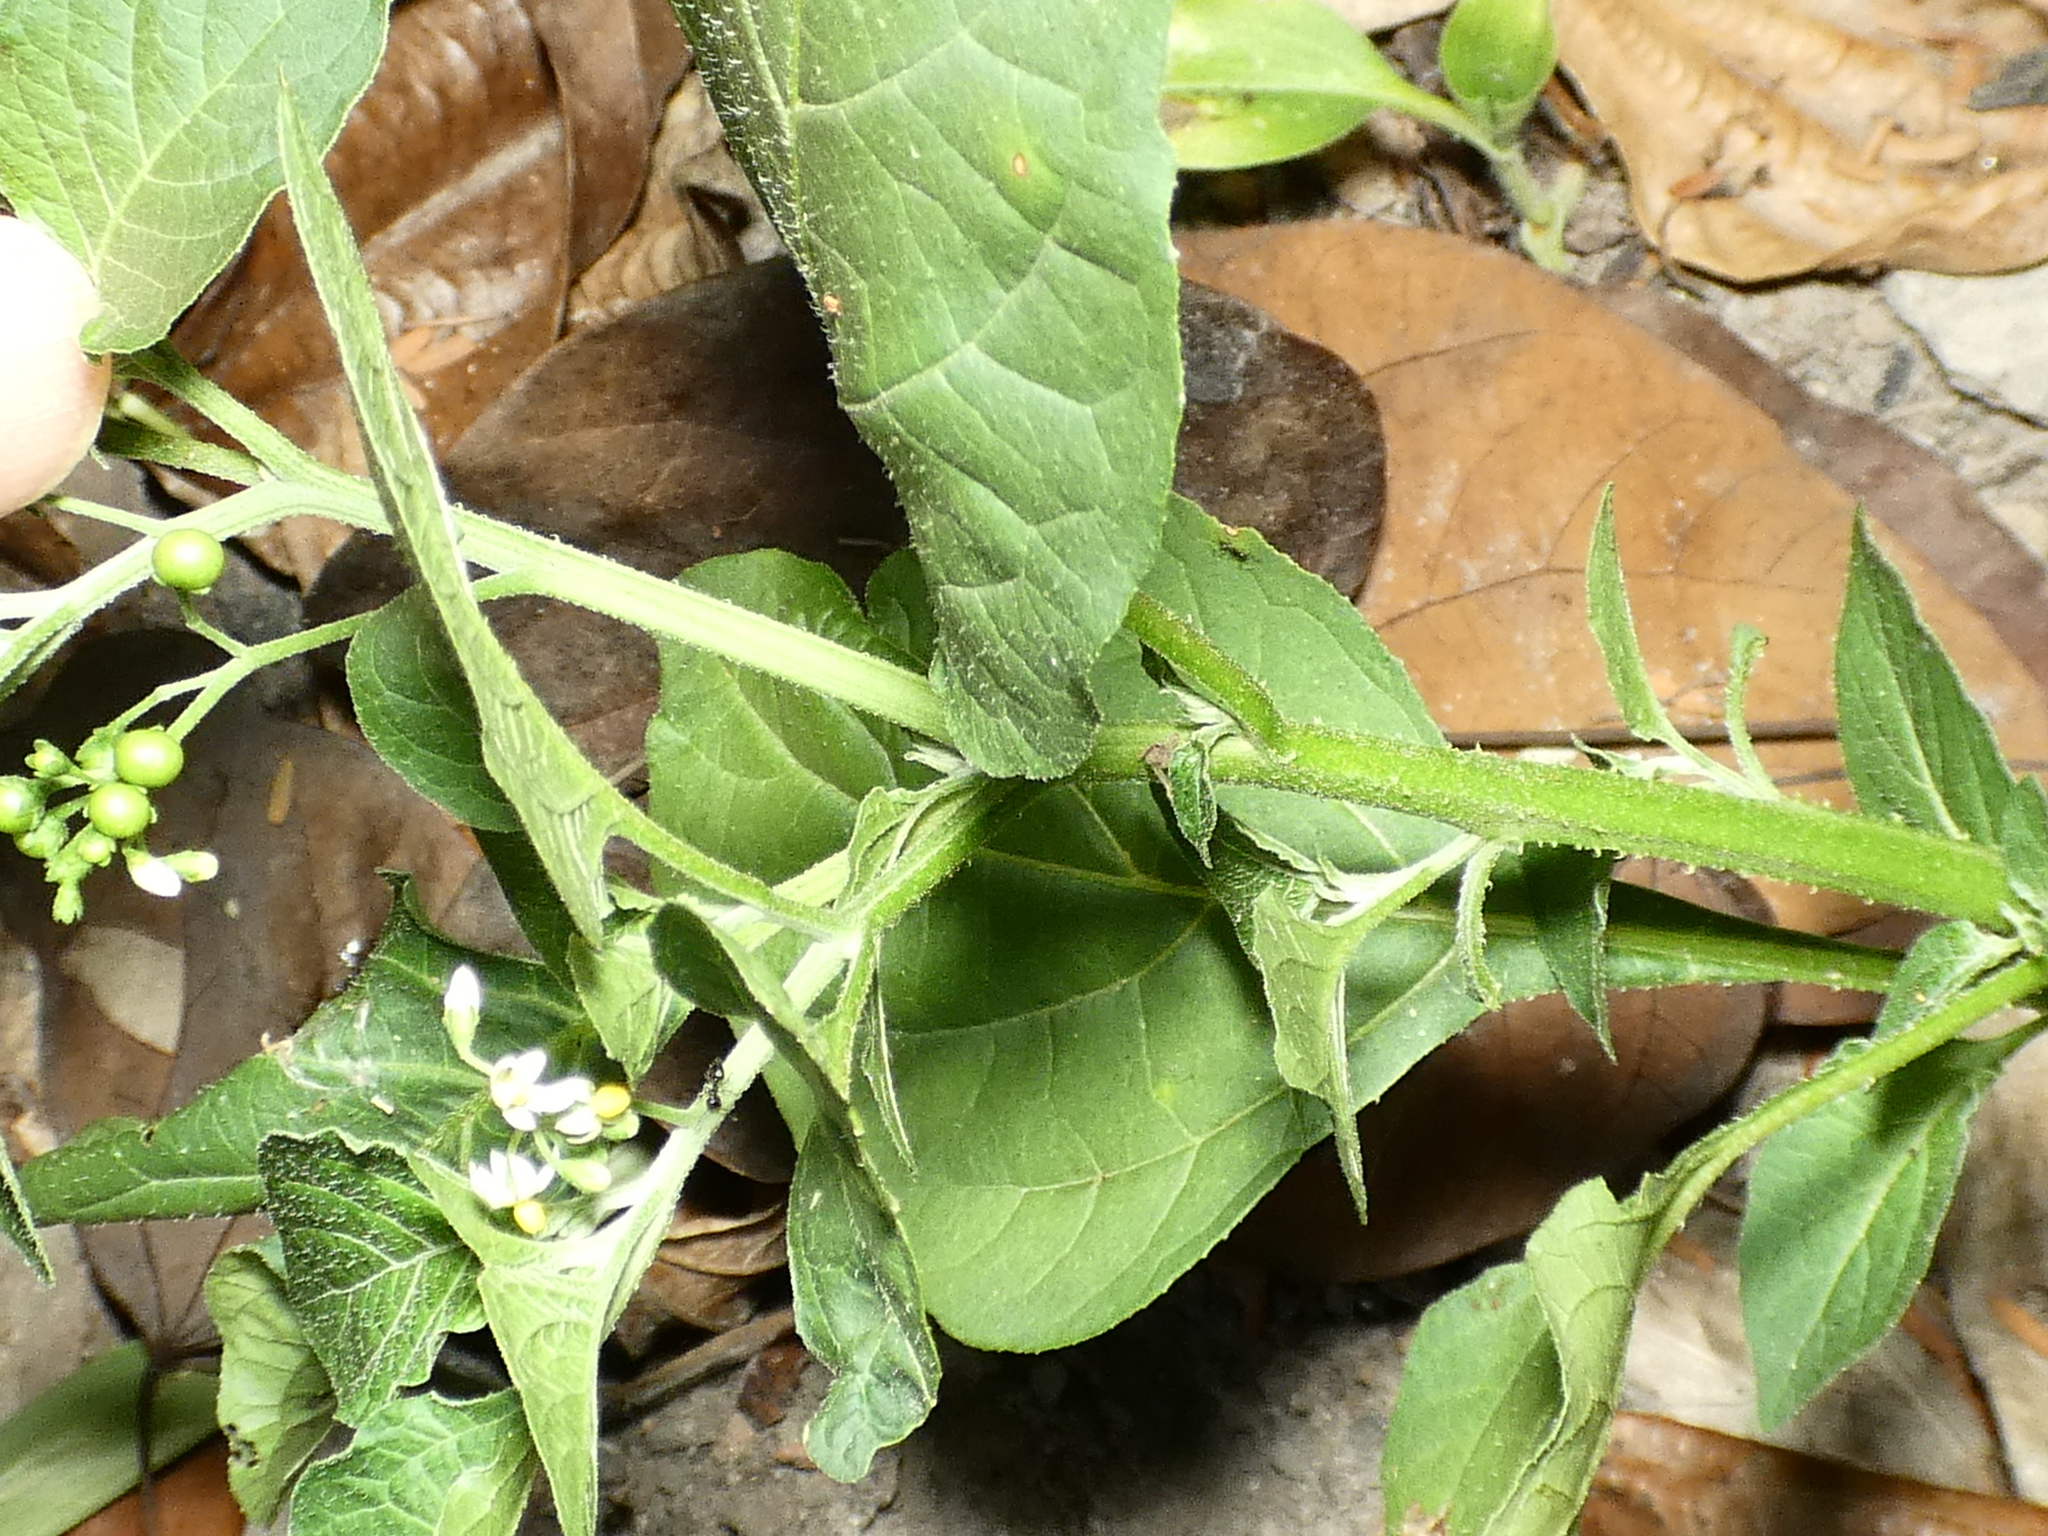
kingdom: Plantae
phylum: Tracheophyta
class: Magnoliopsida
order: Solanales
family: Solanaceae
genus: Solanum
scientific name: Solanum americanum
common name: American black nightshade
